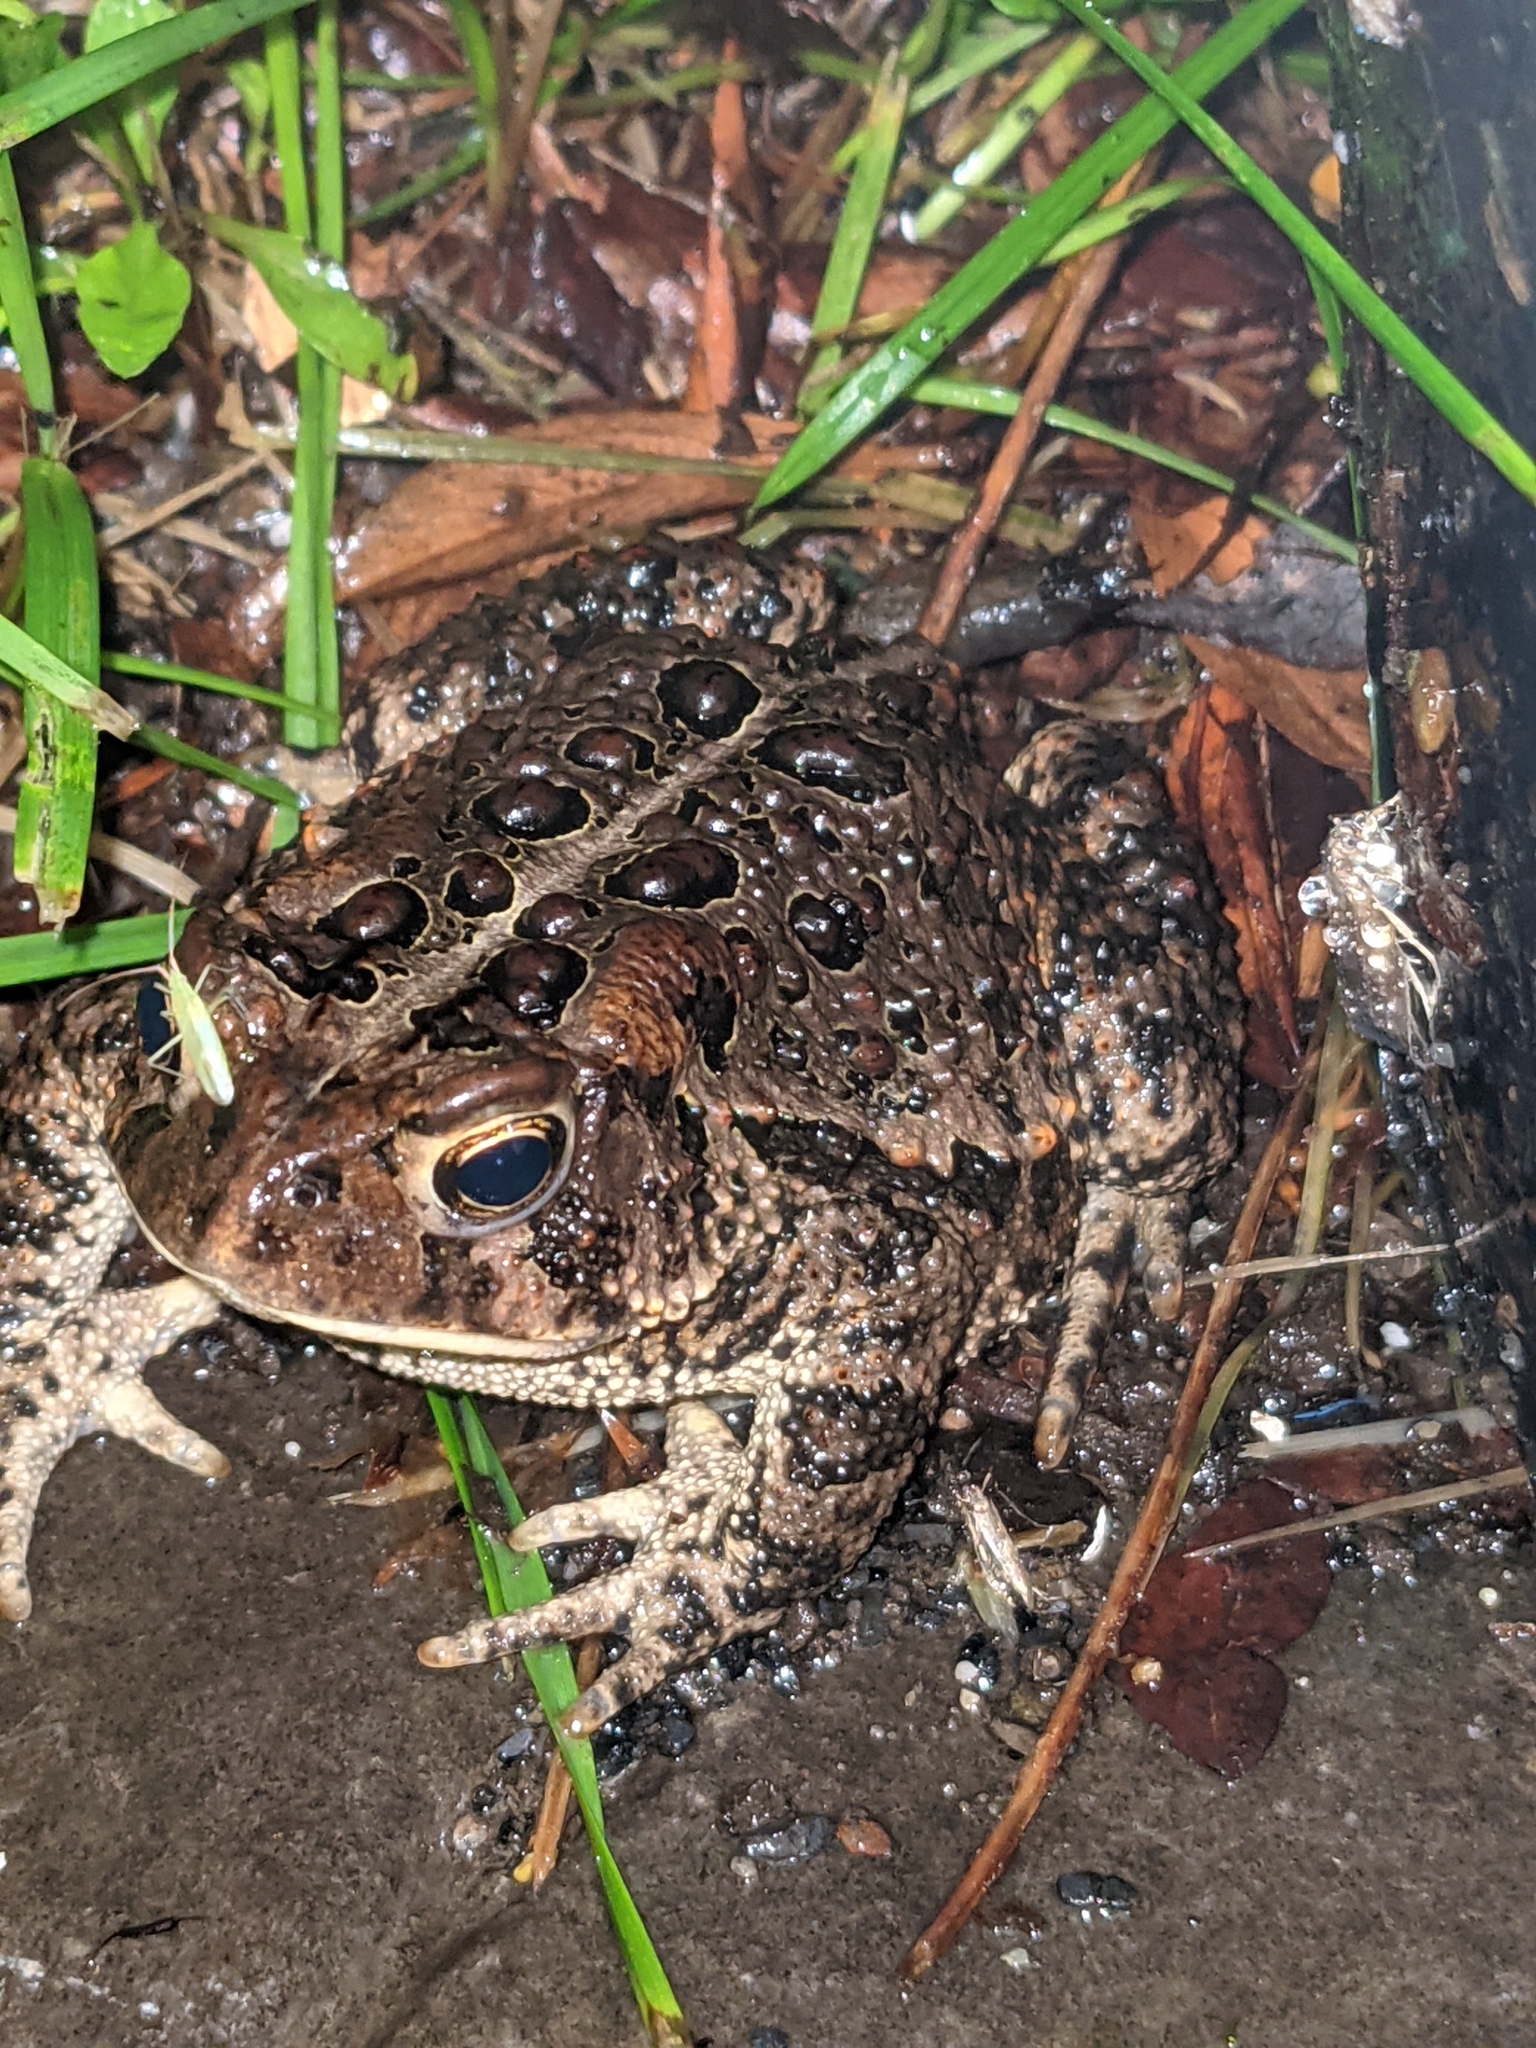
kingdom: Animalia
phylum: Chordata
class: Amphibia
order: Anura
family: Bufonidae
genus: Anaxyrus
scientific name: Anaxyrus americanus
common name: American toad
